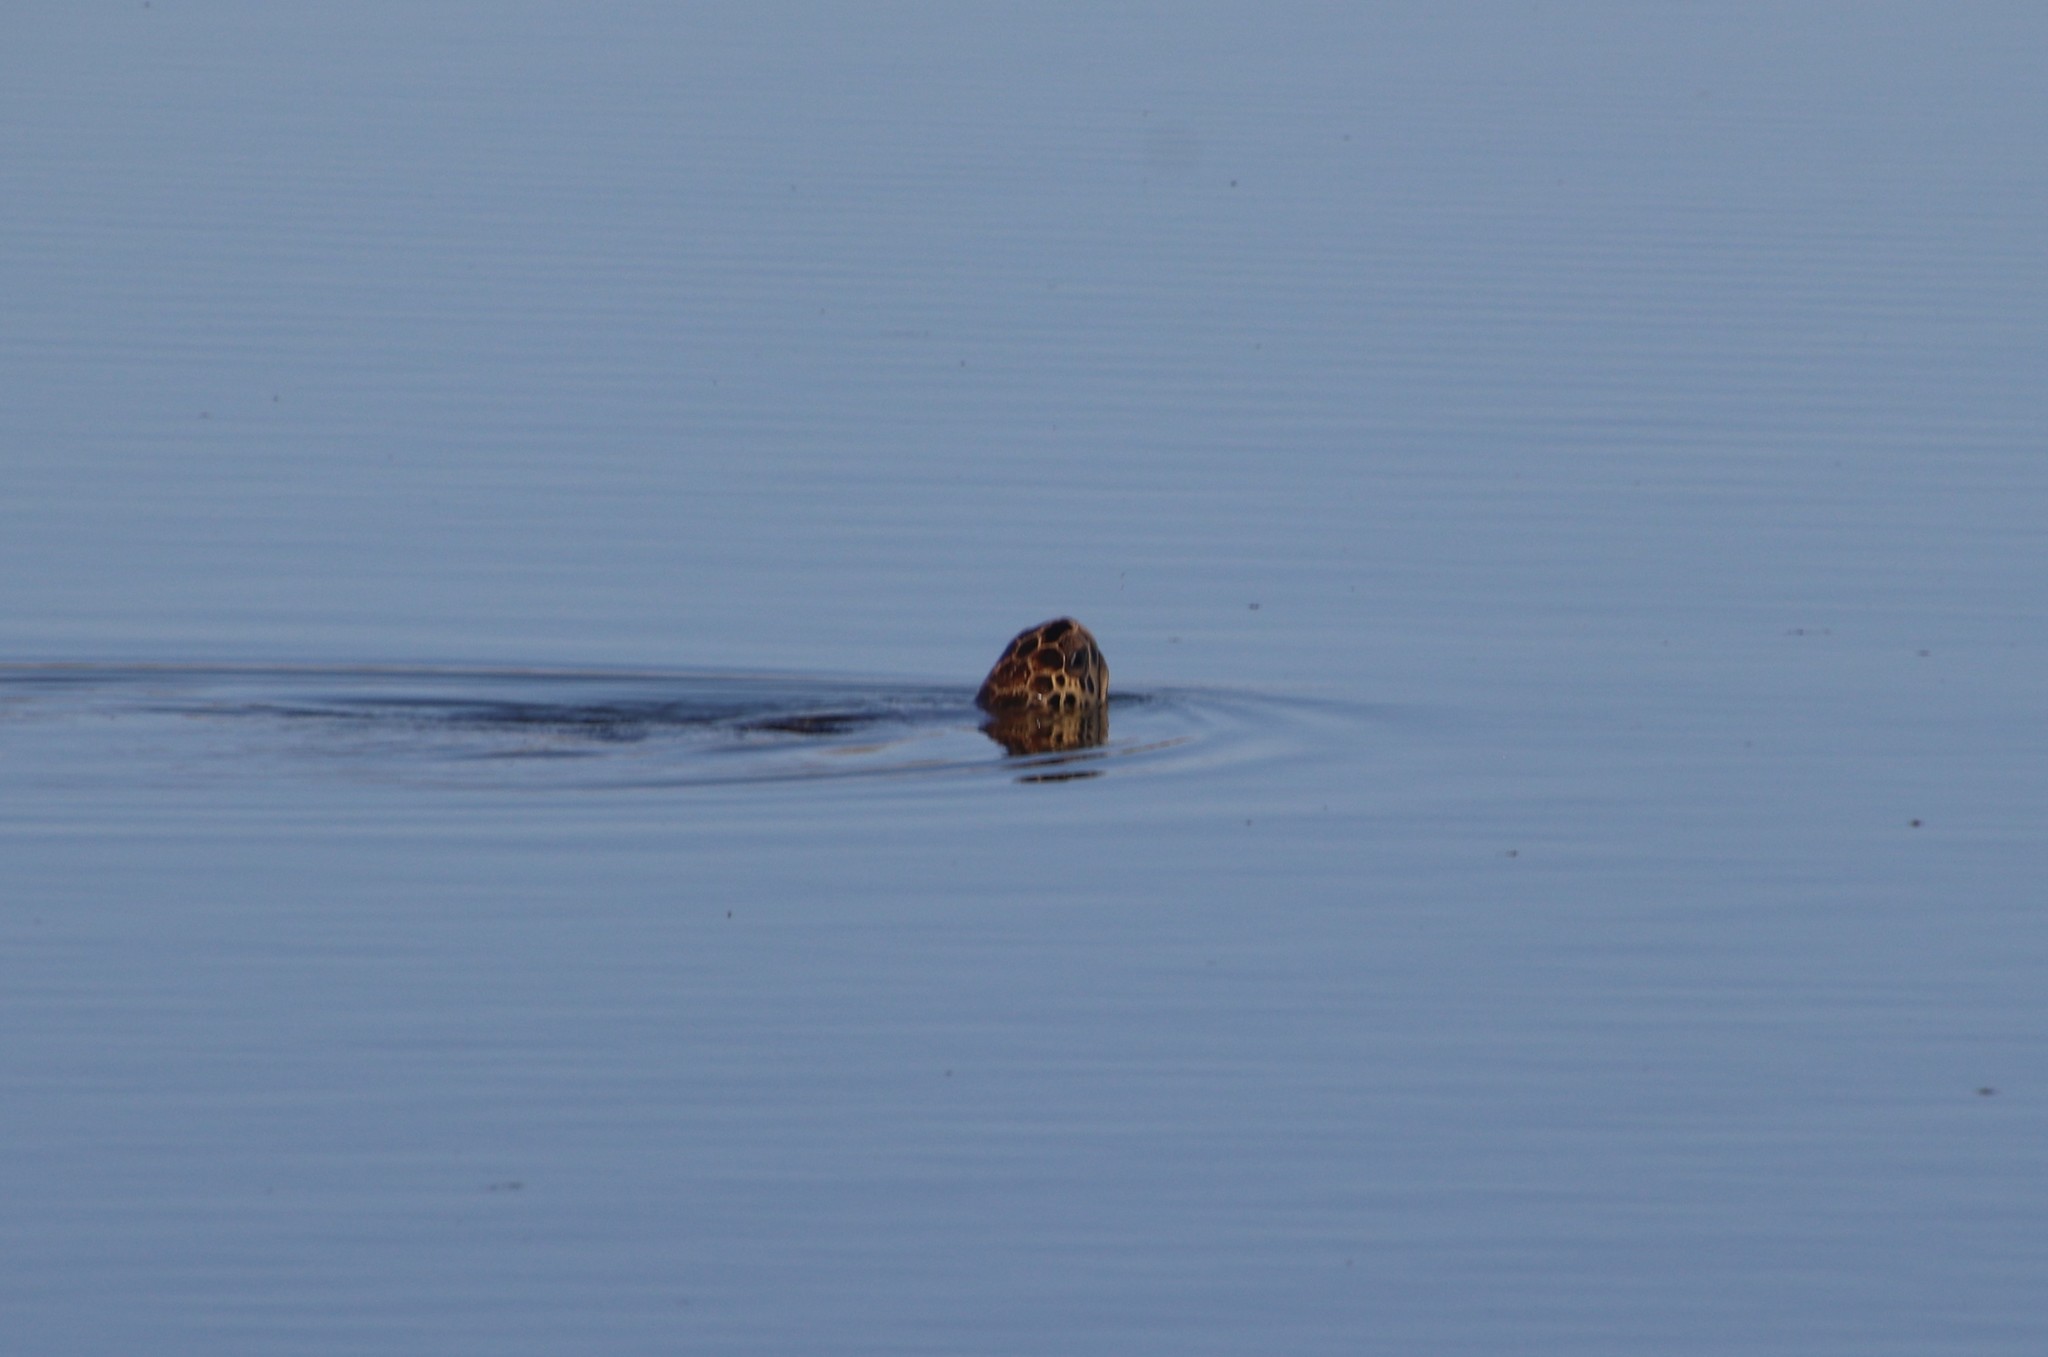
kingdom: Animalia
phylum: Chordata
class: Testudines
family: Cheloniidae
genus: Chelonia
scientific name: Chelonia mydas
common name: Green turtle
